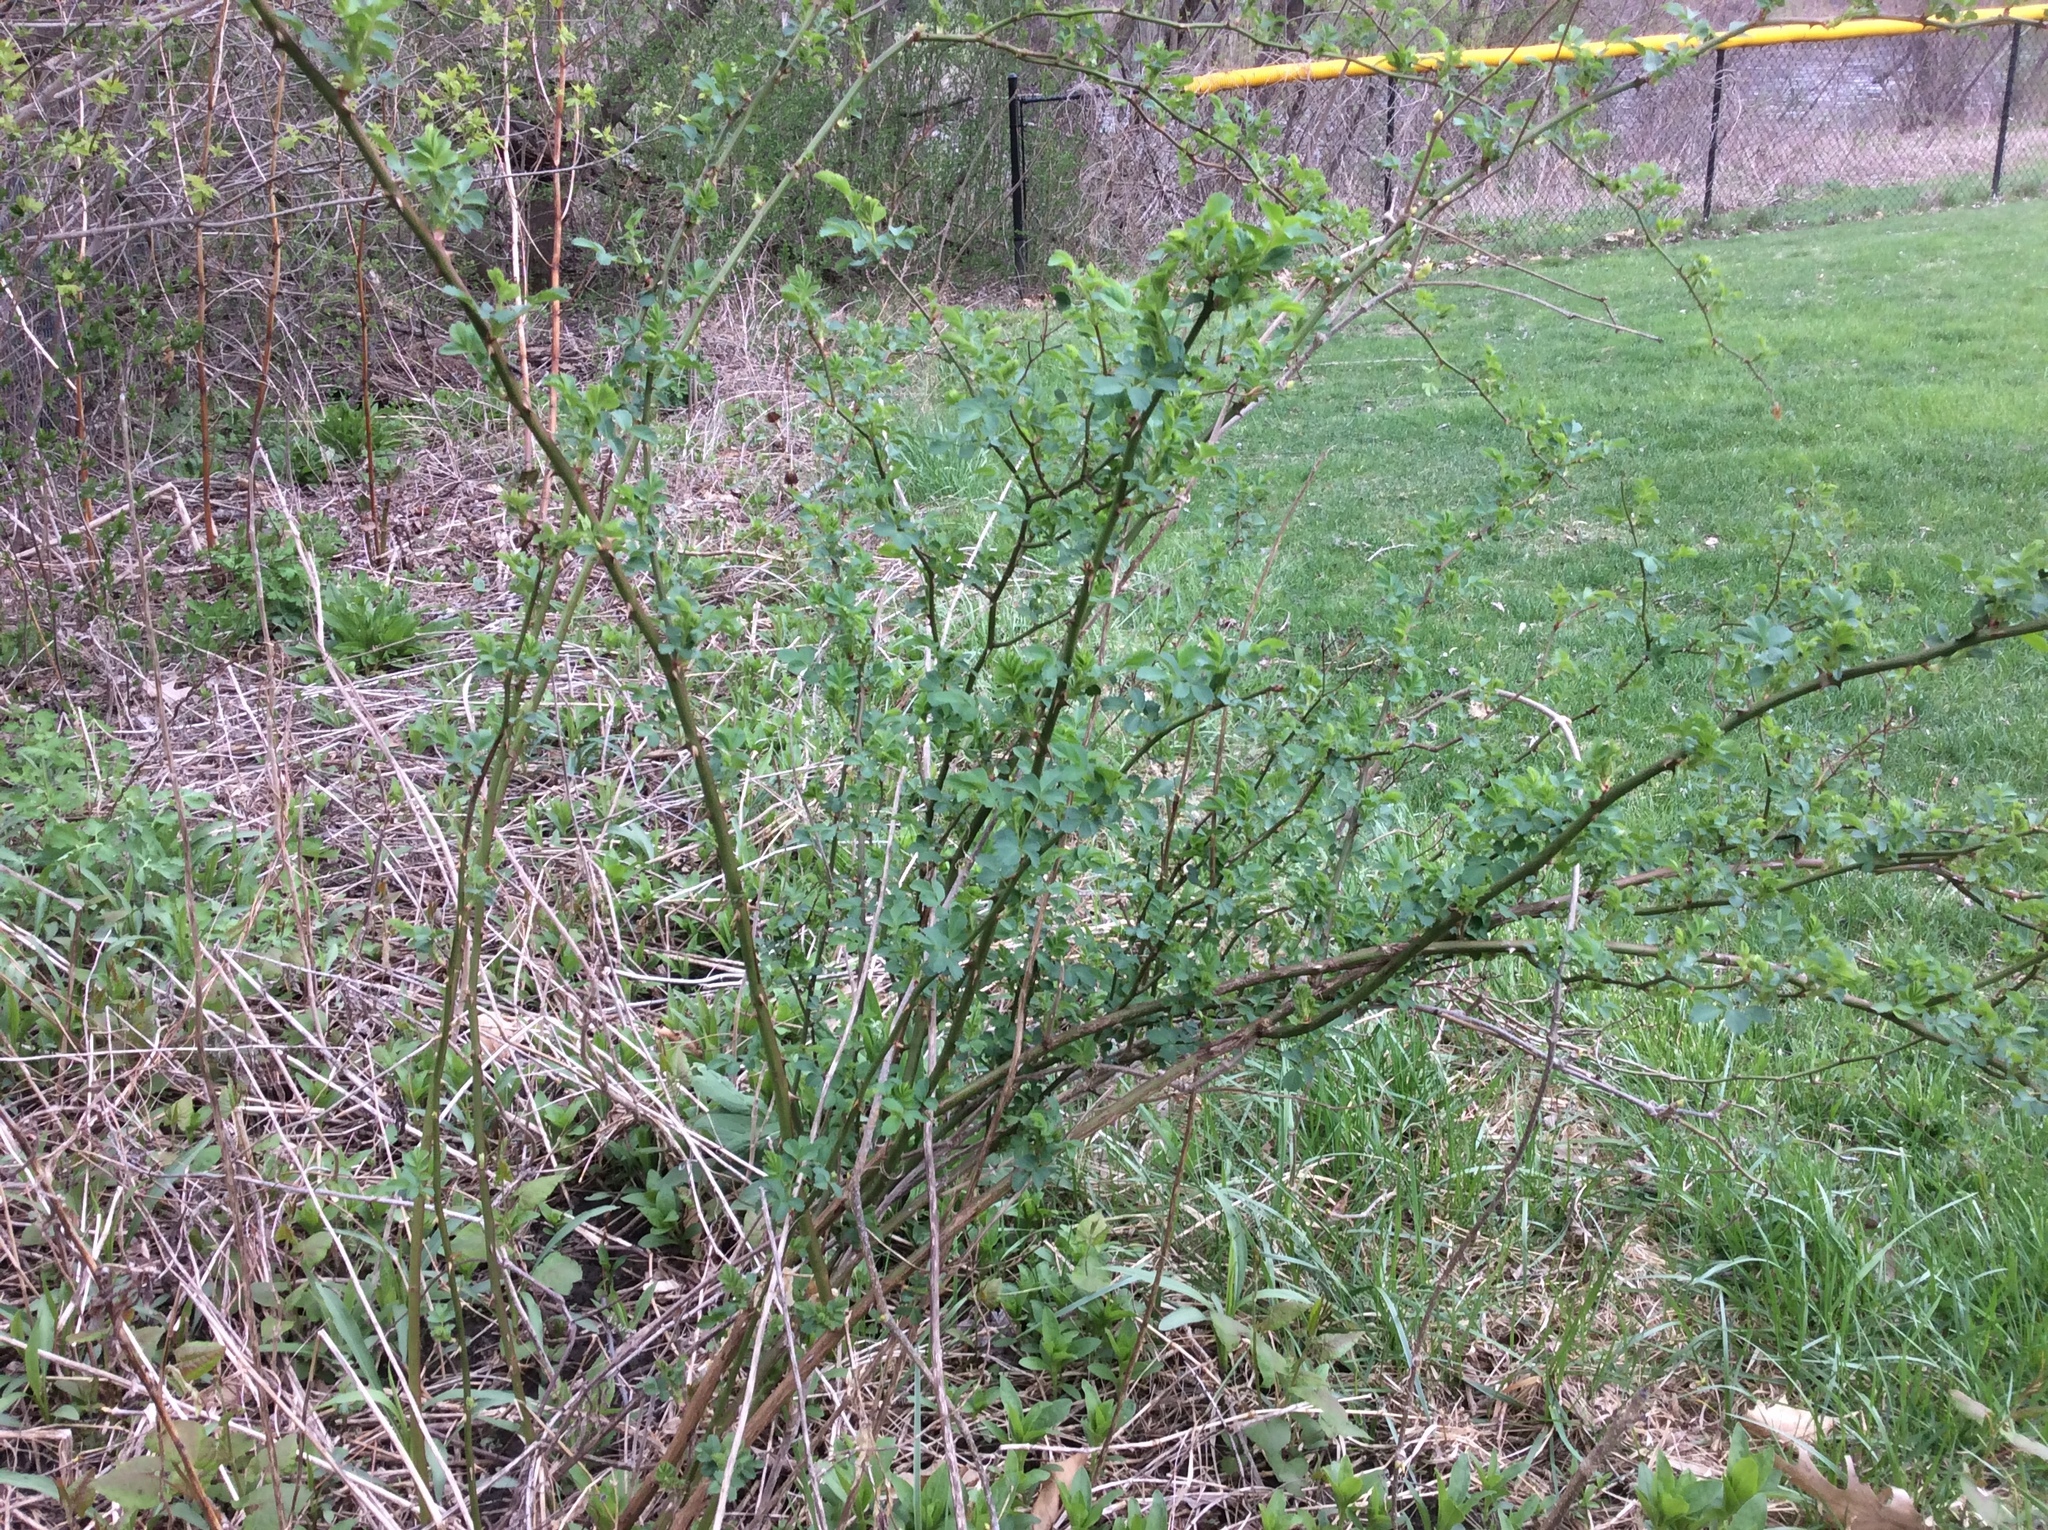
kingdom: Plantae
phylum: Tracheophyta
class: Magnoliopsida
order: Rosales
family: Rosaceae
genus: Rosa
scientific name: Rosa multiflora
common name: Multiflora rose
